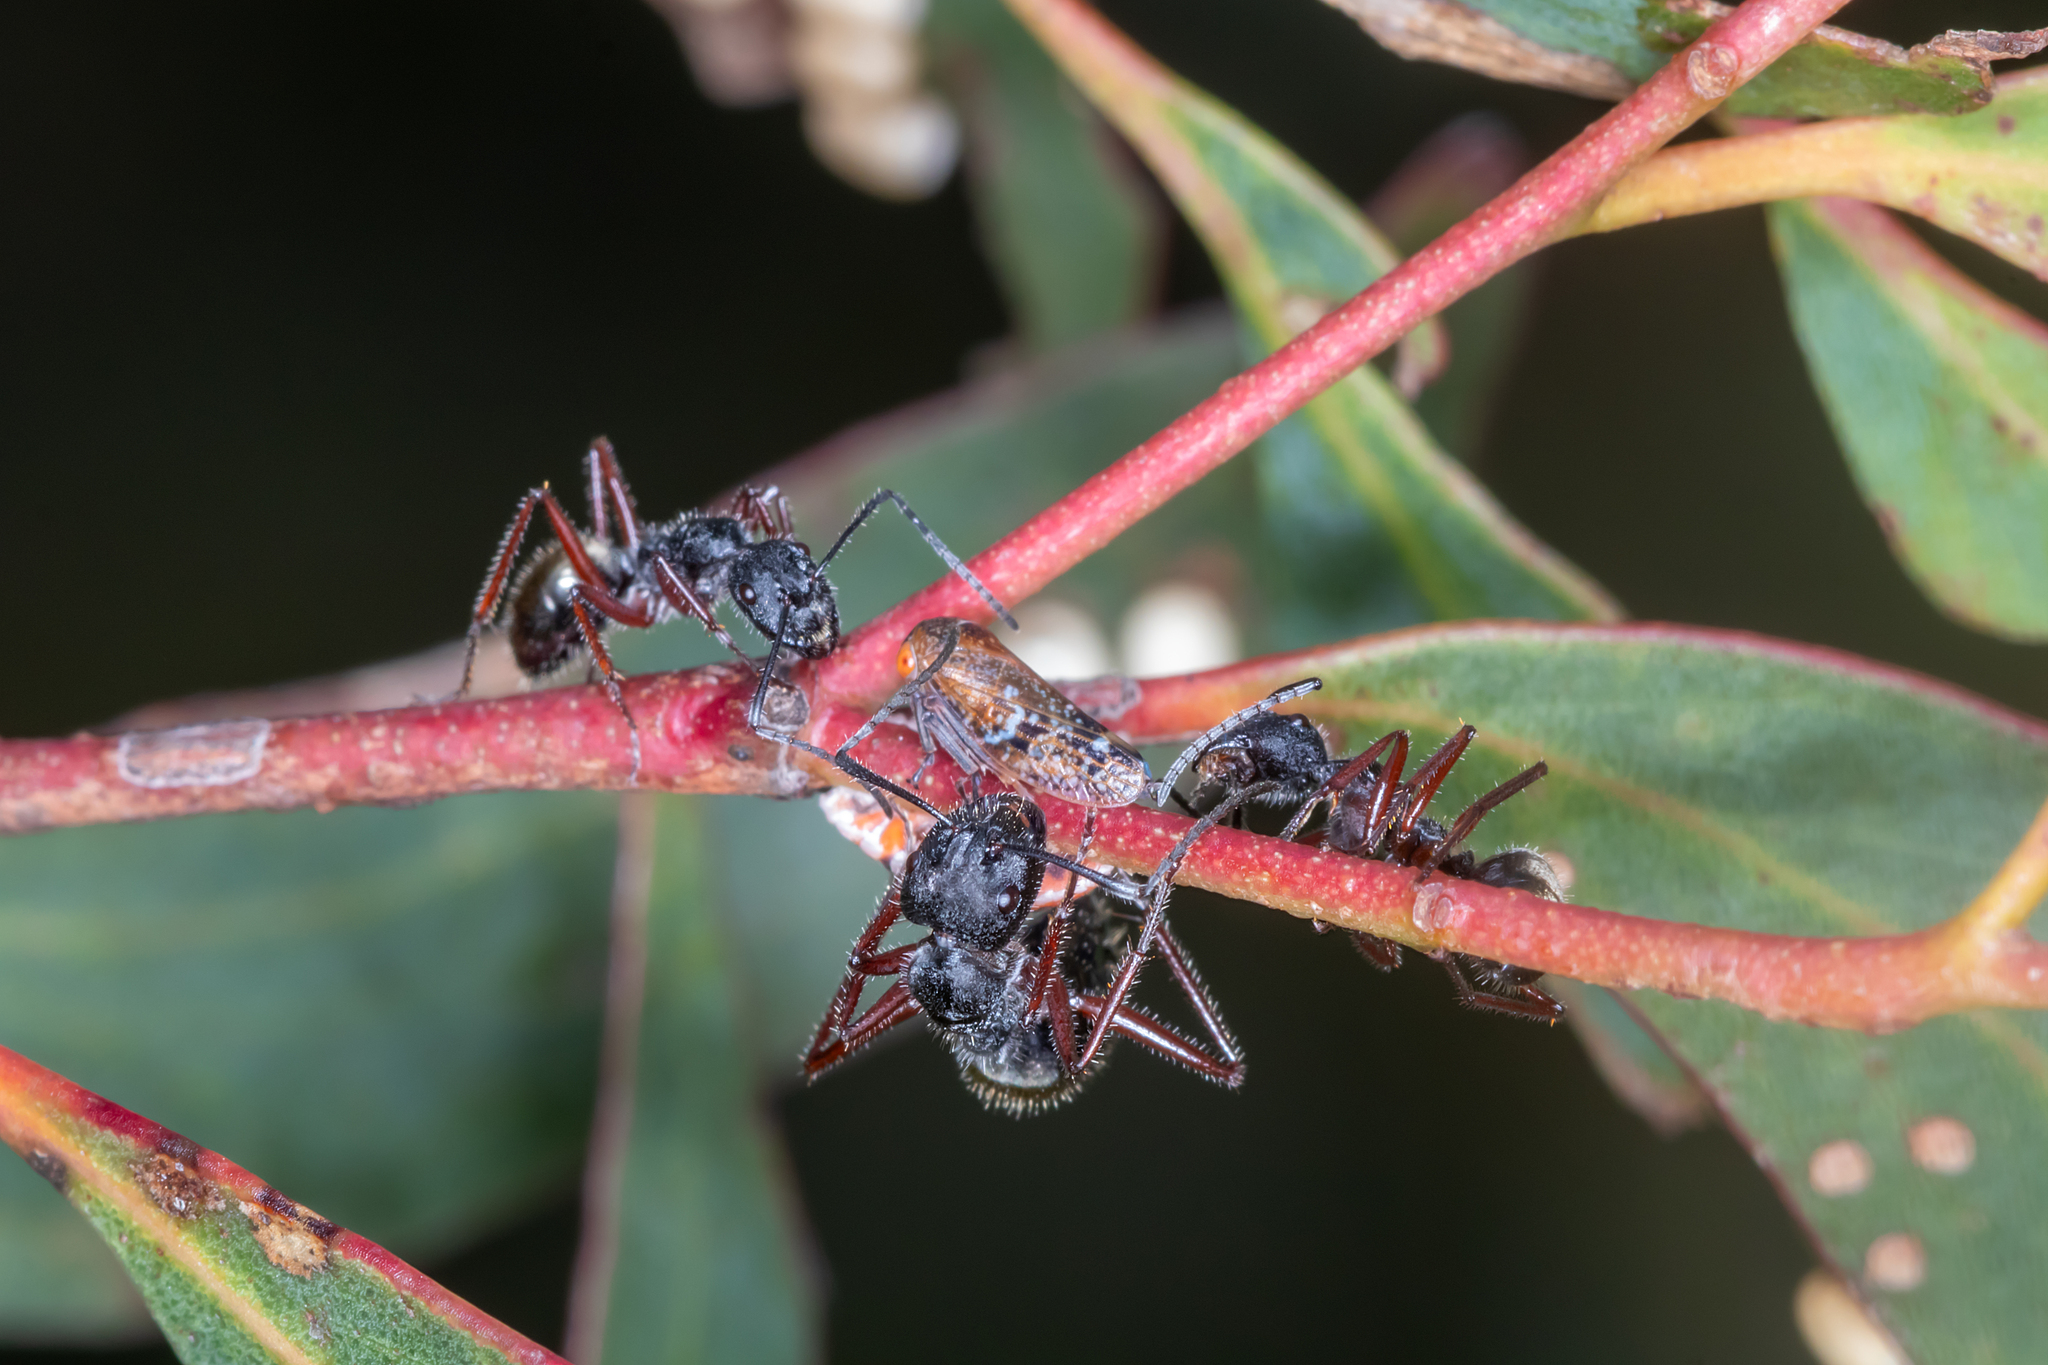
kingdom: Animalia
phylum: Arthropoda
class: Insecta
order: Hymenoptera
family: Formicidae
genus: Camponotus
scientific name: Camponotus suffusus
